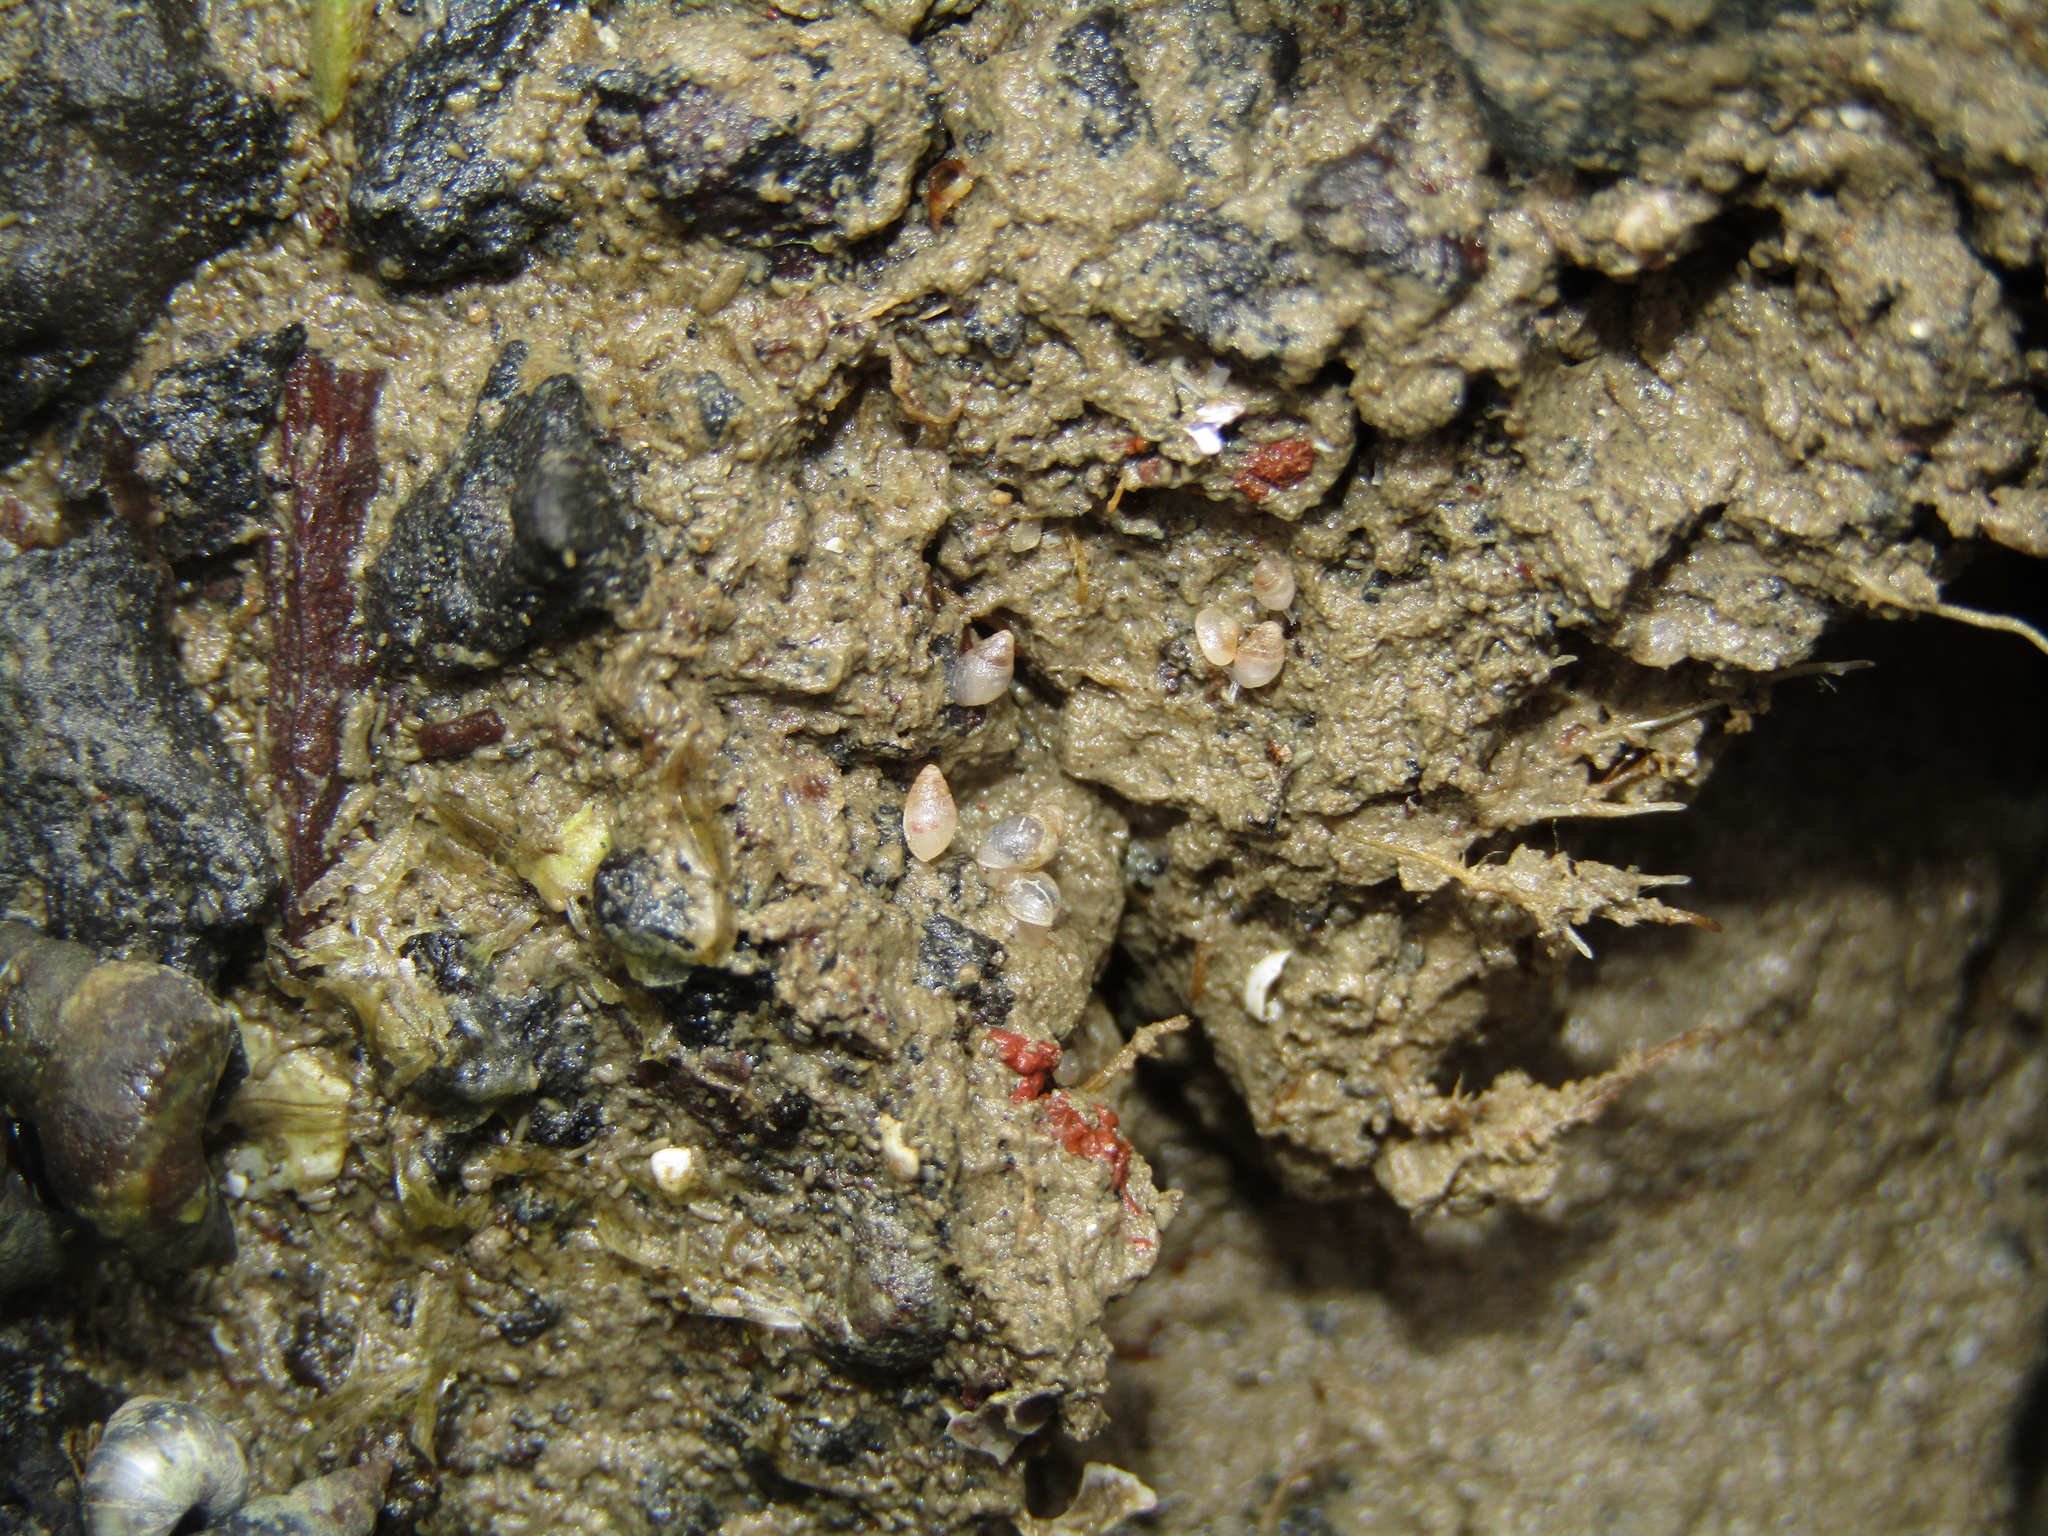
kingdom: Animalia
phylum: Mollusca
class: Gastropoda
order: Ellobiida
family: Ellobiidae
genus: Leuconopsis
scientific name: Leuconopsis obsoleta
